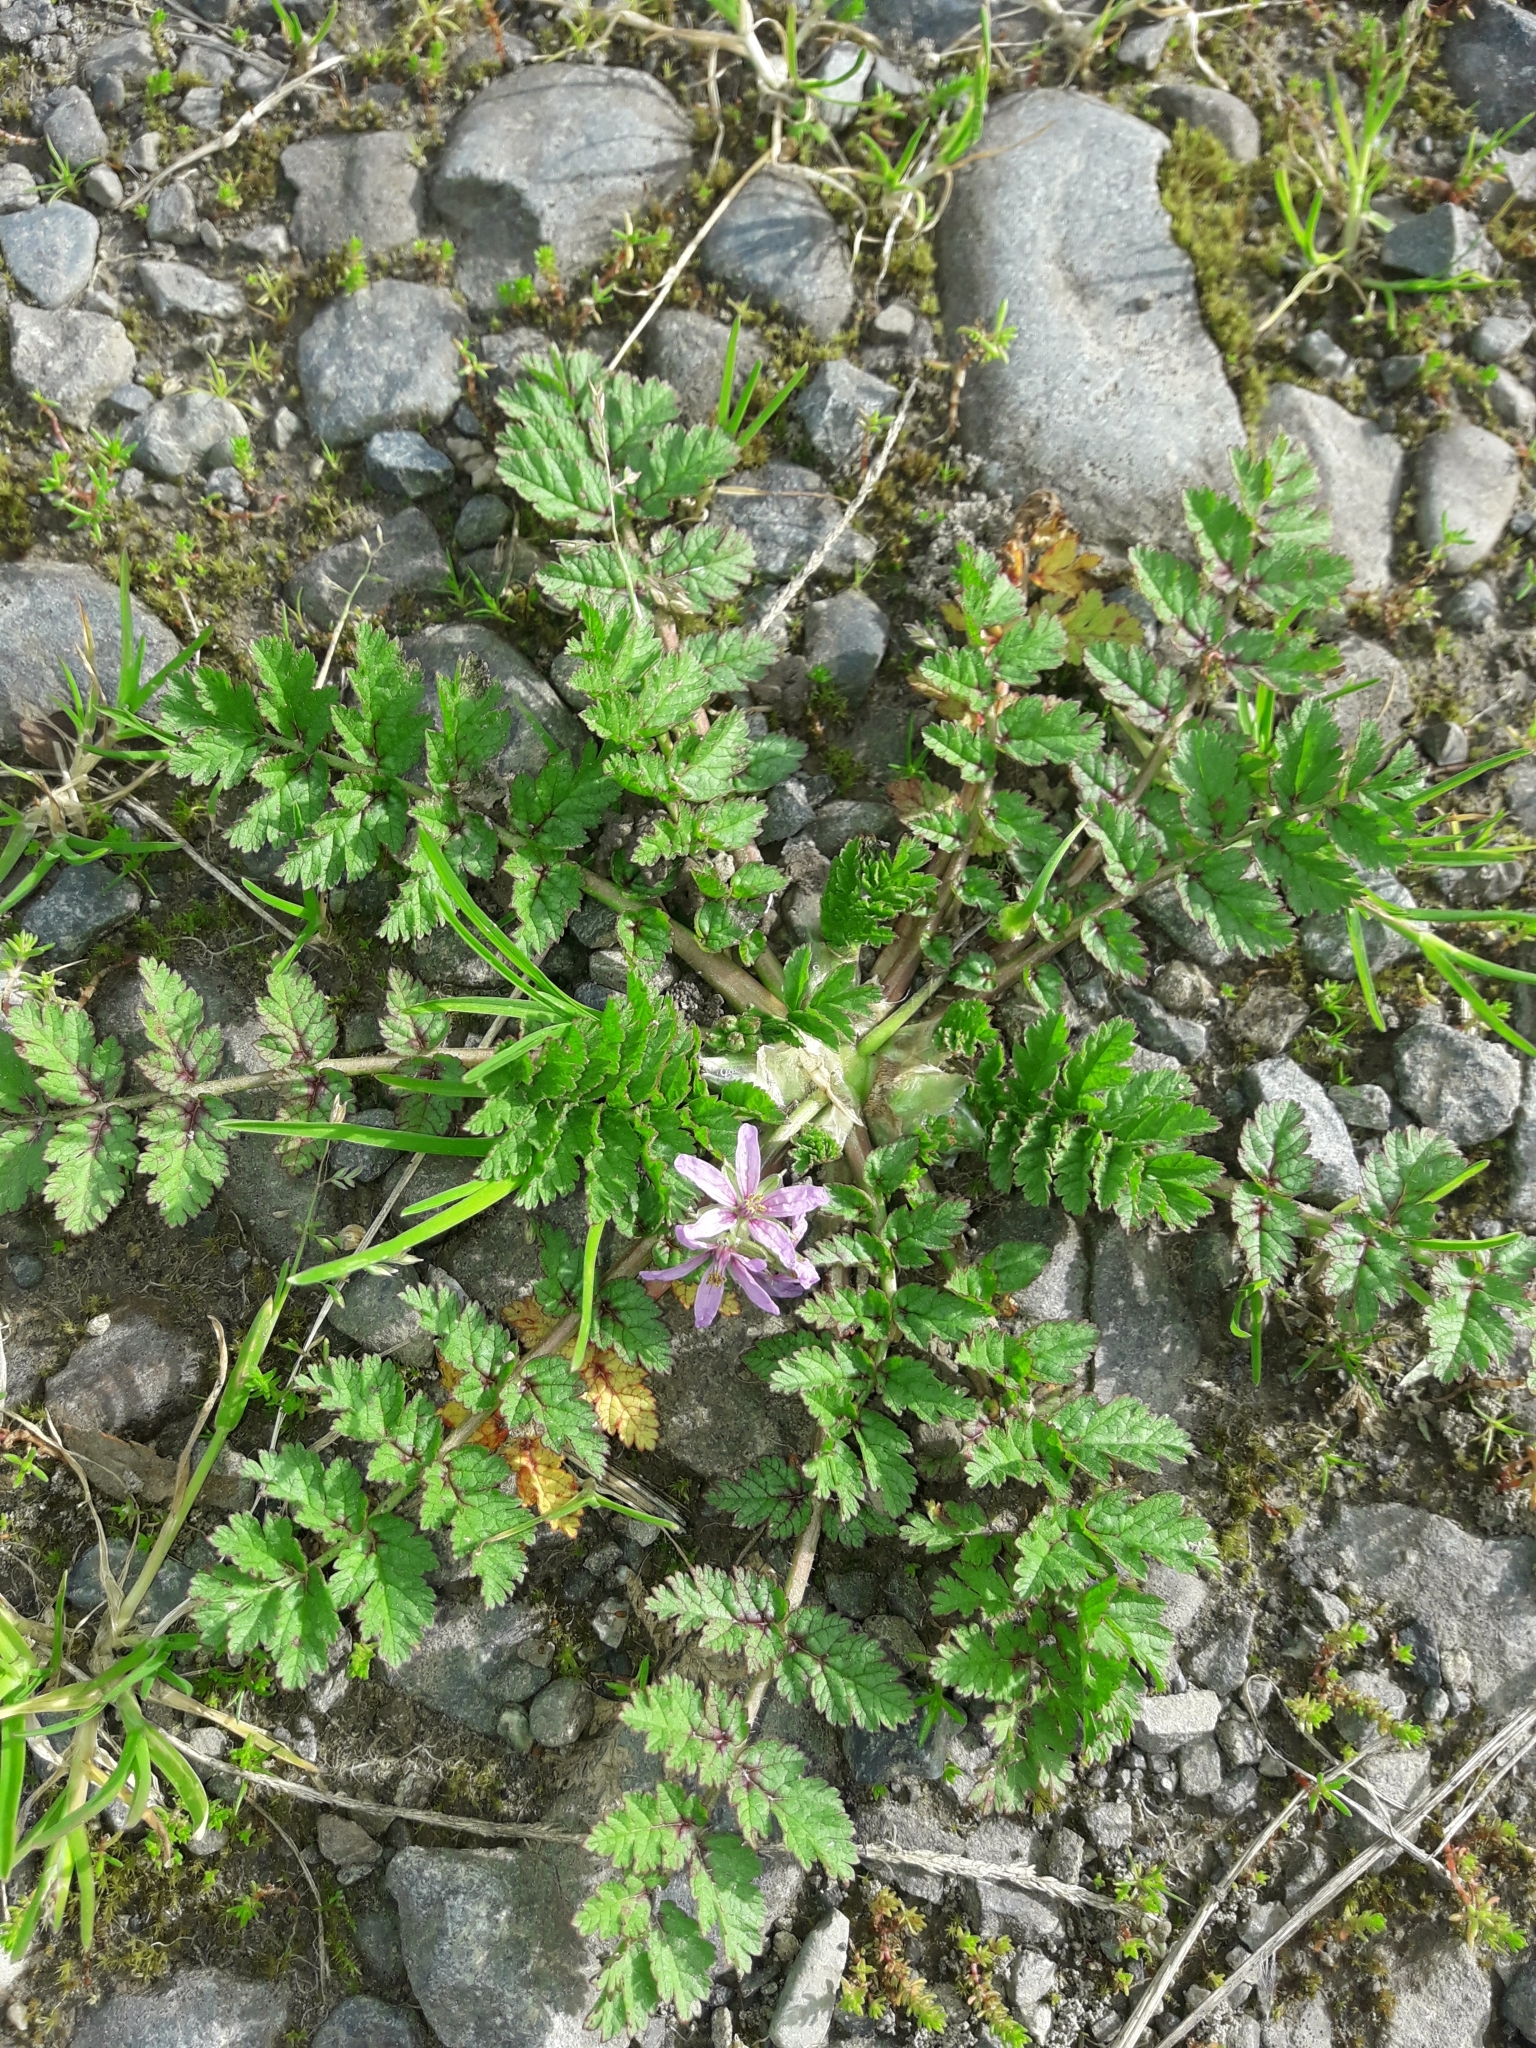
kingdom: Plantae
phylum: Tracheophyta
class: Magnoliopsida
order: Geraniales
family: Geraniaceae
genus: Erodium
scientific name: Erodium moschatum
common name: Musk stork's-bill
